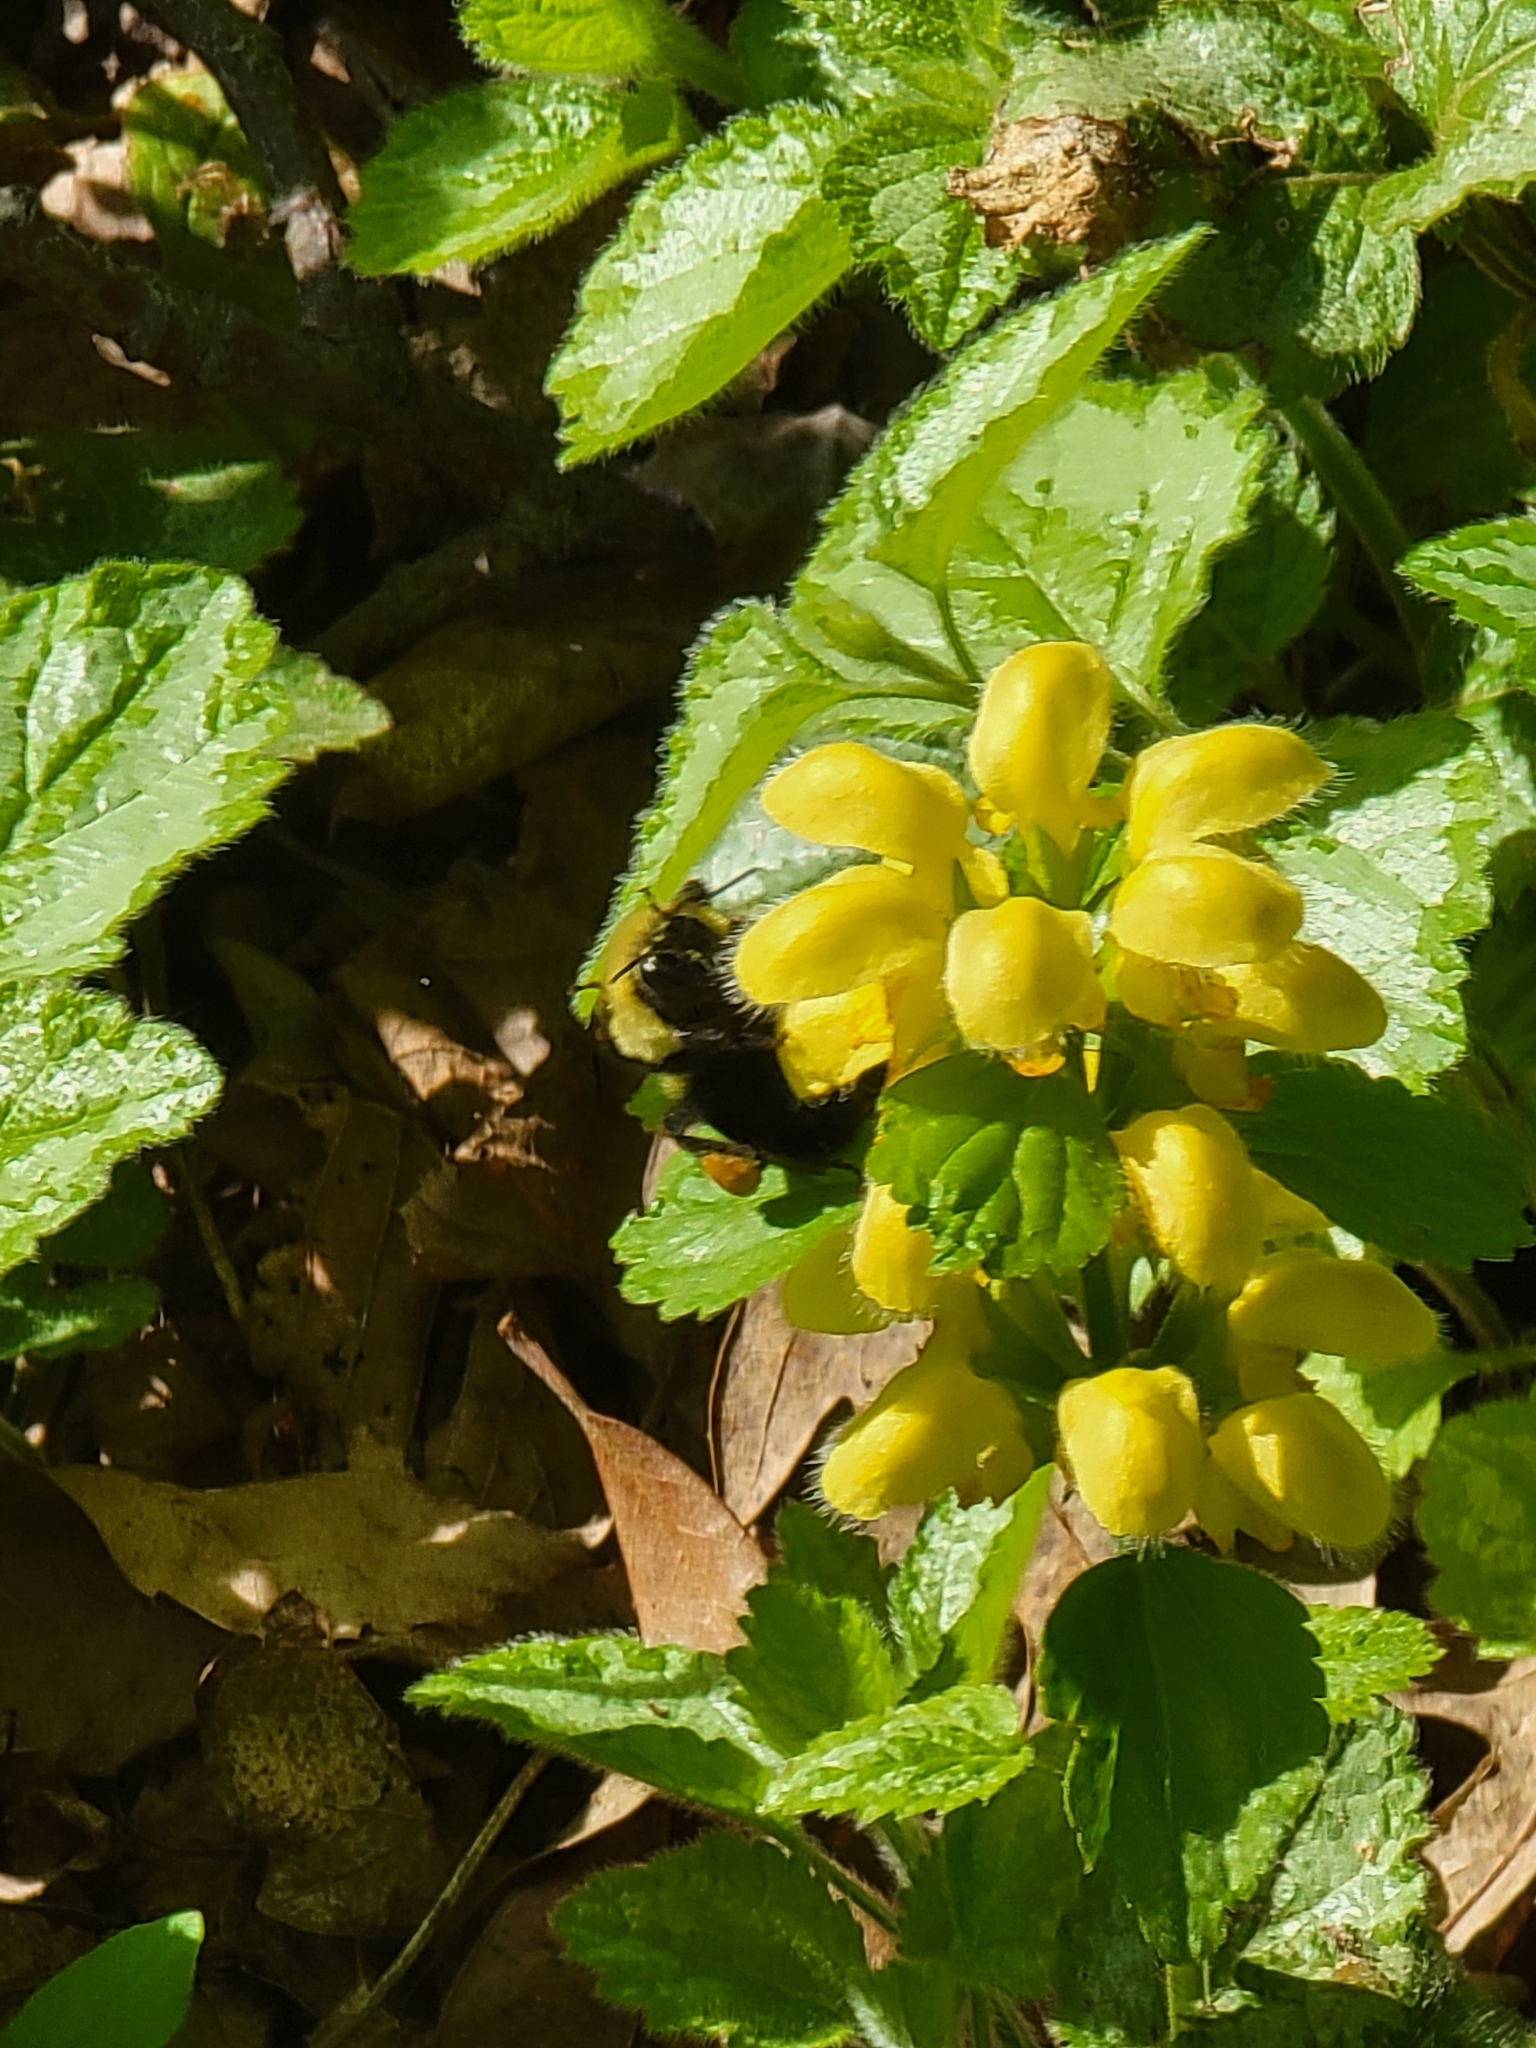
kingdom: Plantae
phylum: Tracheophyta
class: Magnoliopsida
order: Lamiales
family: Lamiaceae
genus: Lamium
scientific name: Lamium galeobdolon
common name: Yellow archangel
